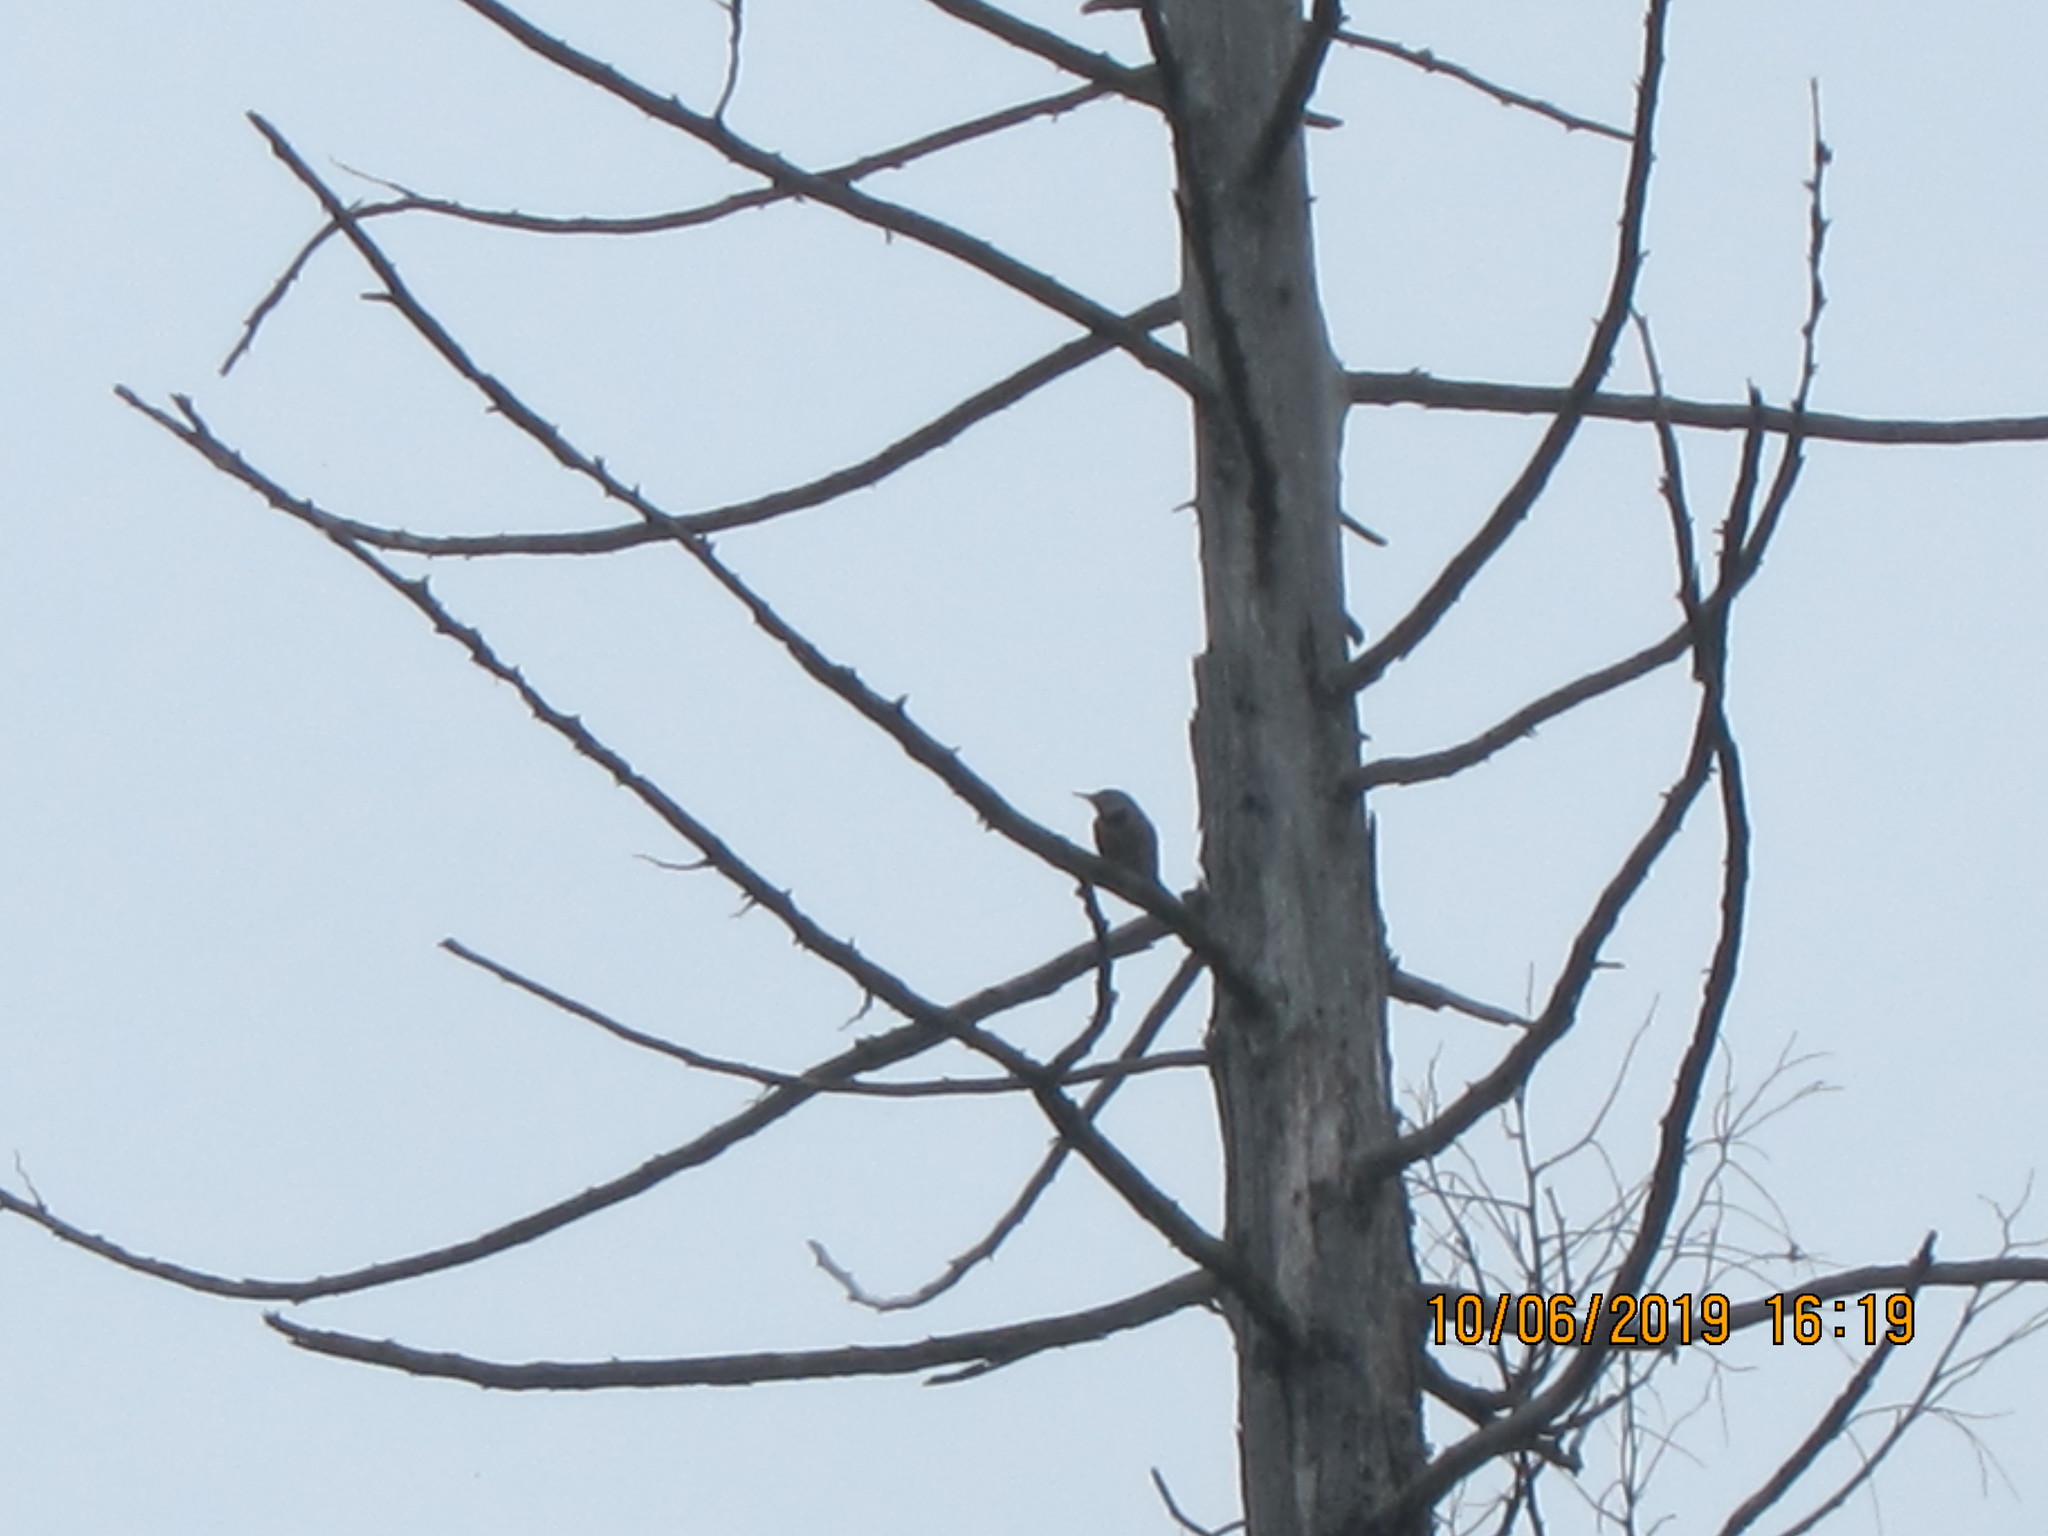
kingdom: Animalia
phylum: Chordata
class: Aves
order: Piciformes
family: Picidae
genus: Colaptes
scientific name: Colaptes auratus
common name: Northern flicker
